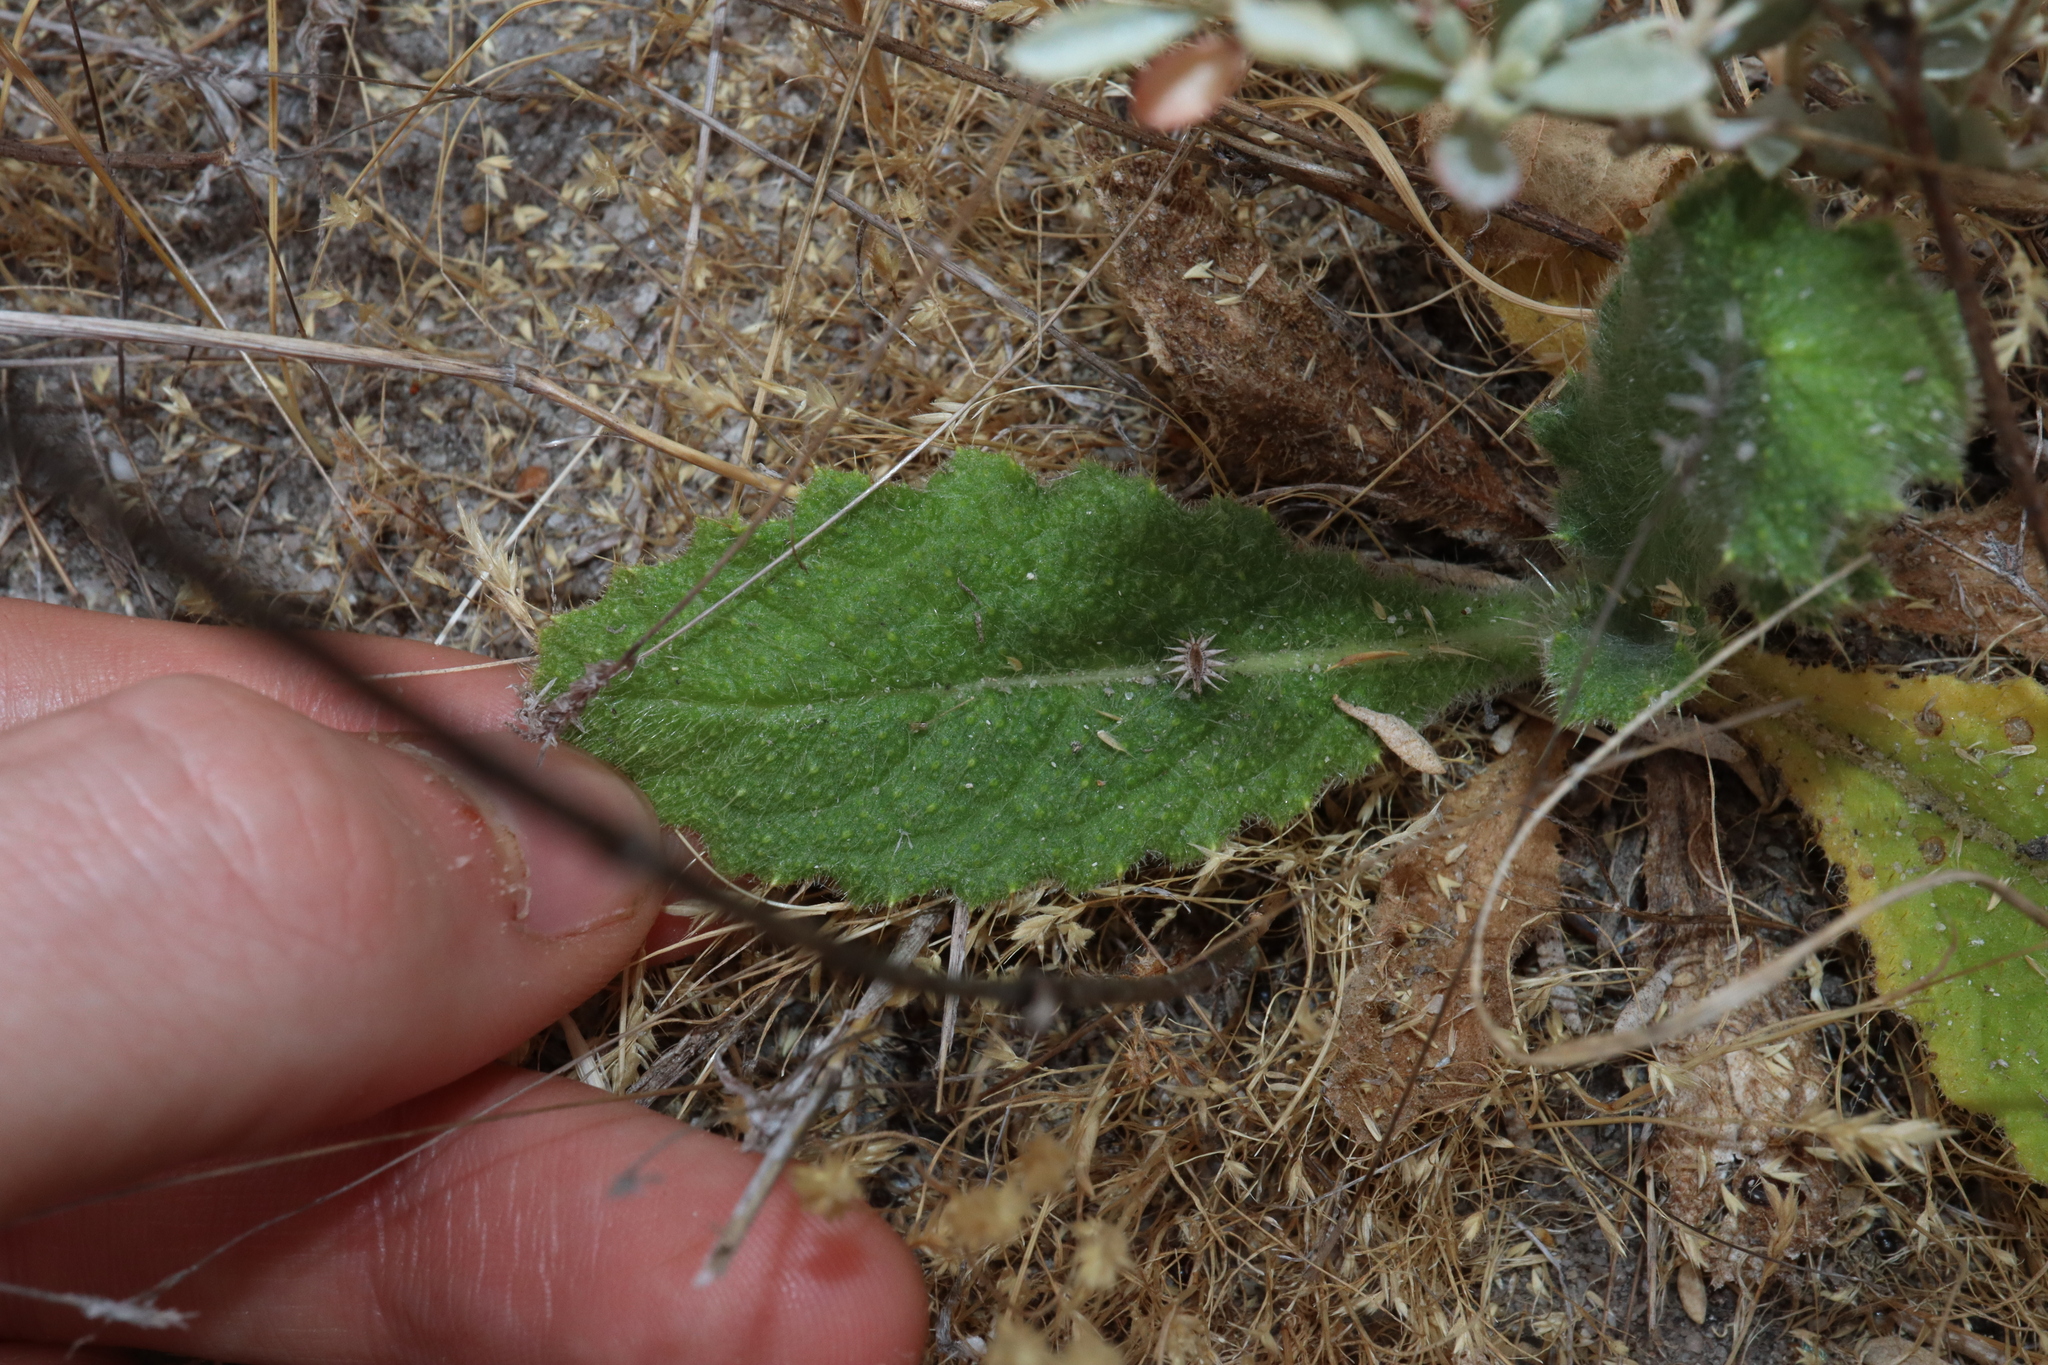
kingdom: Plantae
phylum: Tracheophyta
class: Magnoliopsida
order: Asterales
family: Asteraceae
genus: Cirsium
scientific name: Cirsium vulgare
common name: Bull thistle
